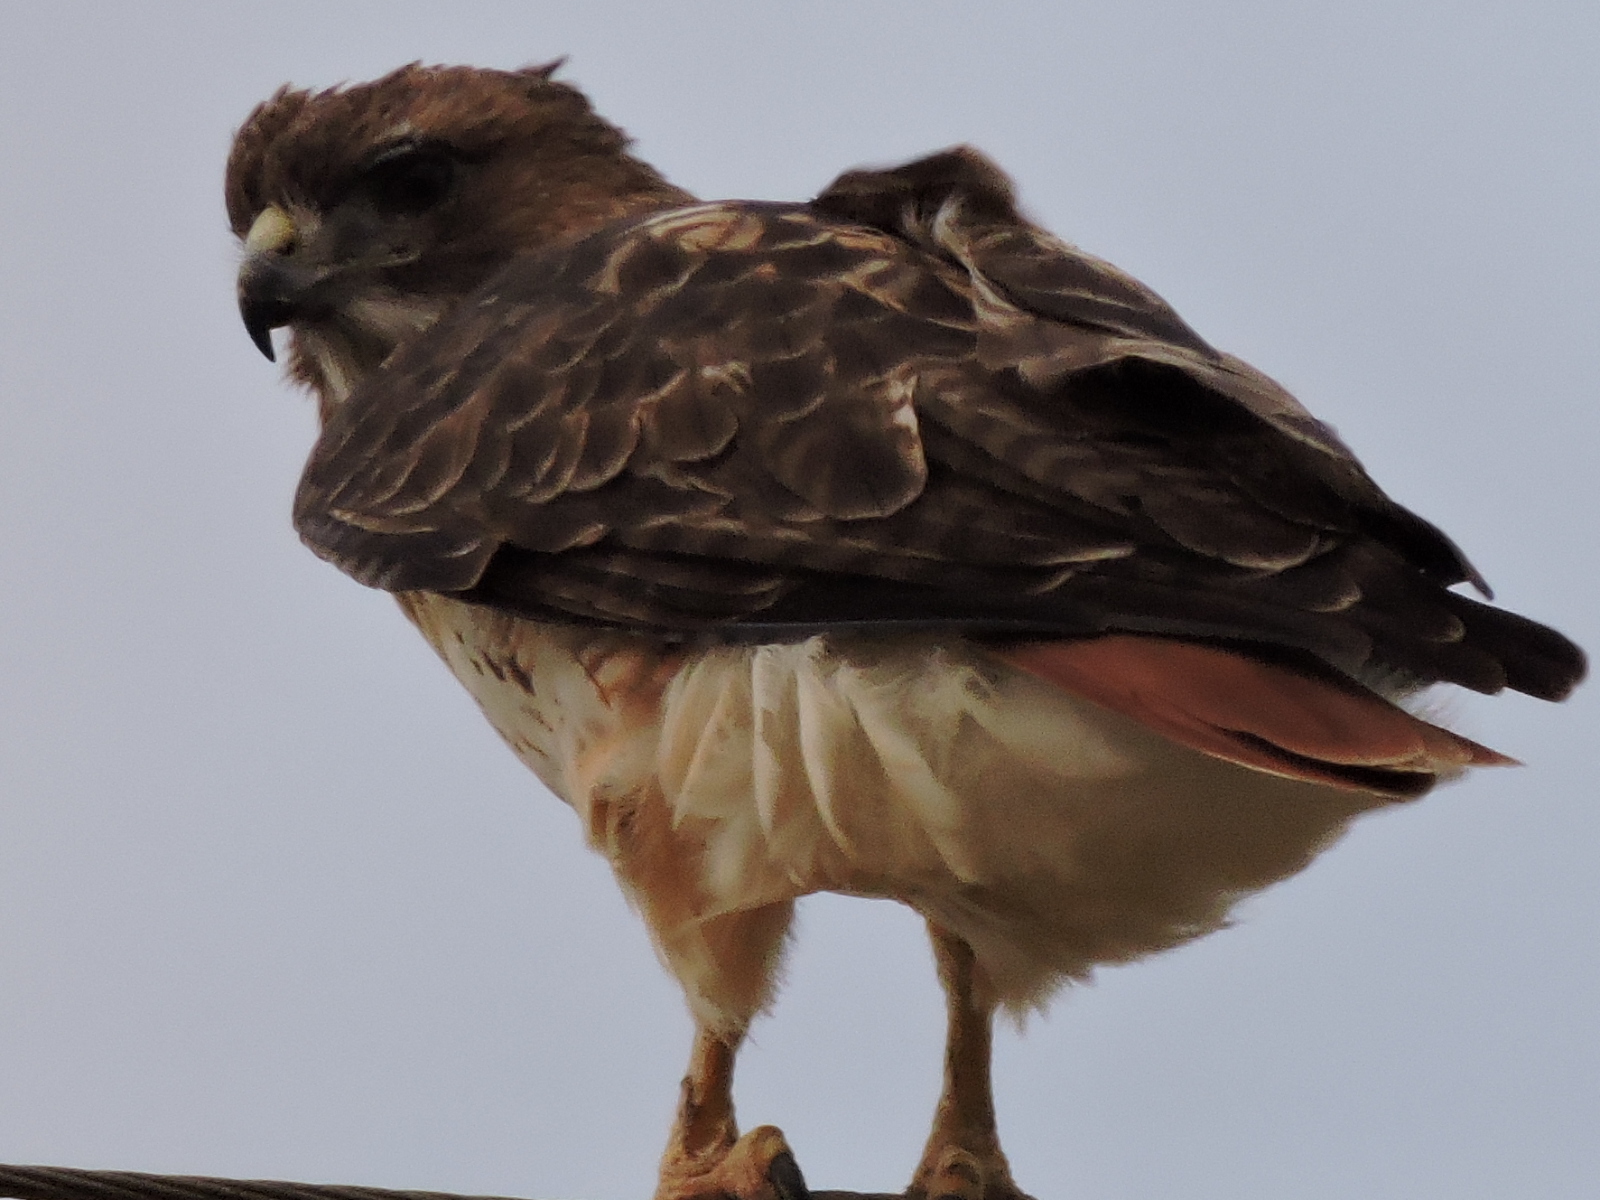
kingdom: Animalia
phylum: Chordata
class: Aves
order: Accipitriformes
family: Accipitridae
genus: Buteo
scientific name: Buteo jamaicensis
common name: Red-tailed hawk
